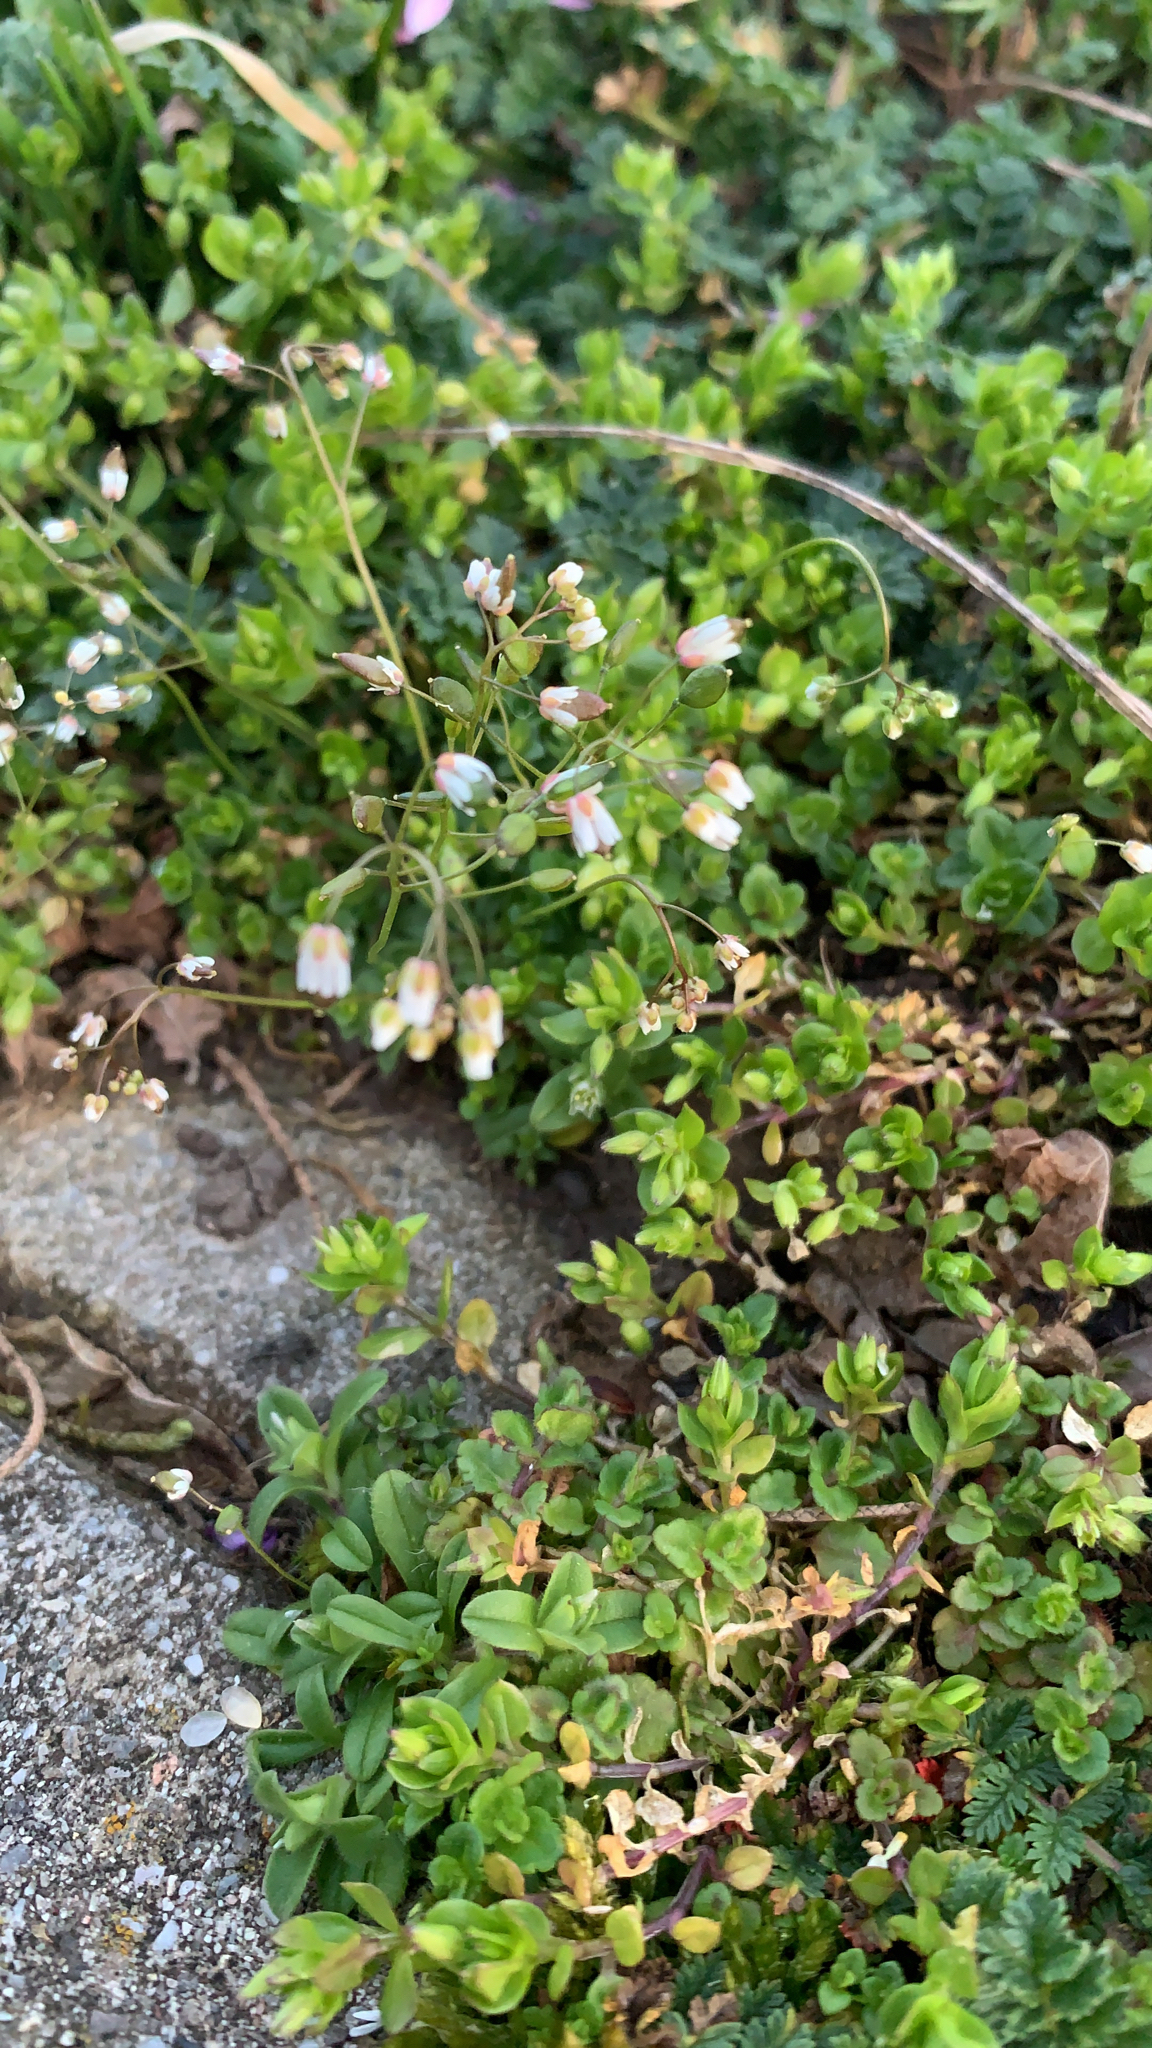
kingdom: Plantae
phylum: Tracheophyta
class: Magnoliopsida
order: Brassicales
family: Brassicaceae
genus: Draba
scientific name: Draba verna
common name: Spring draba
